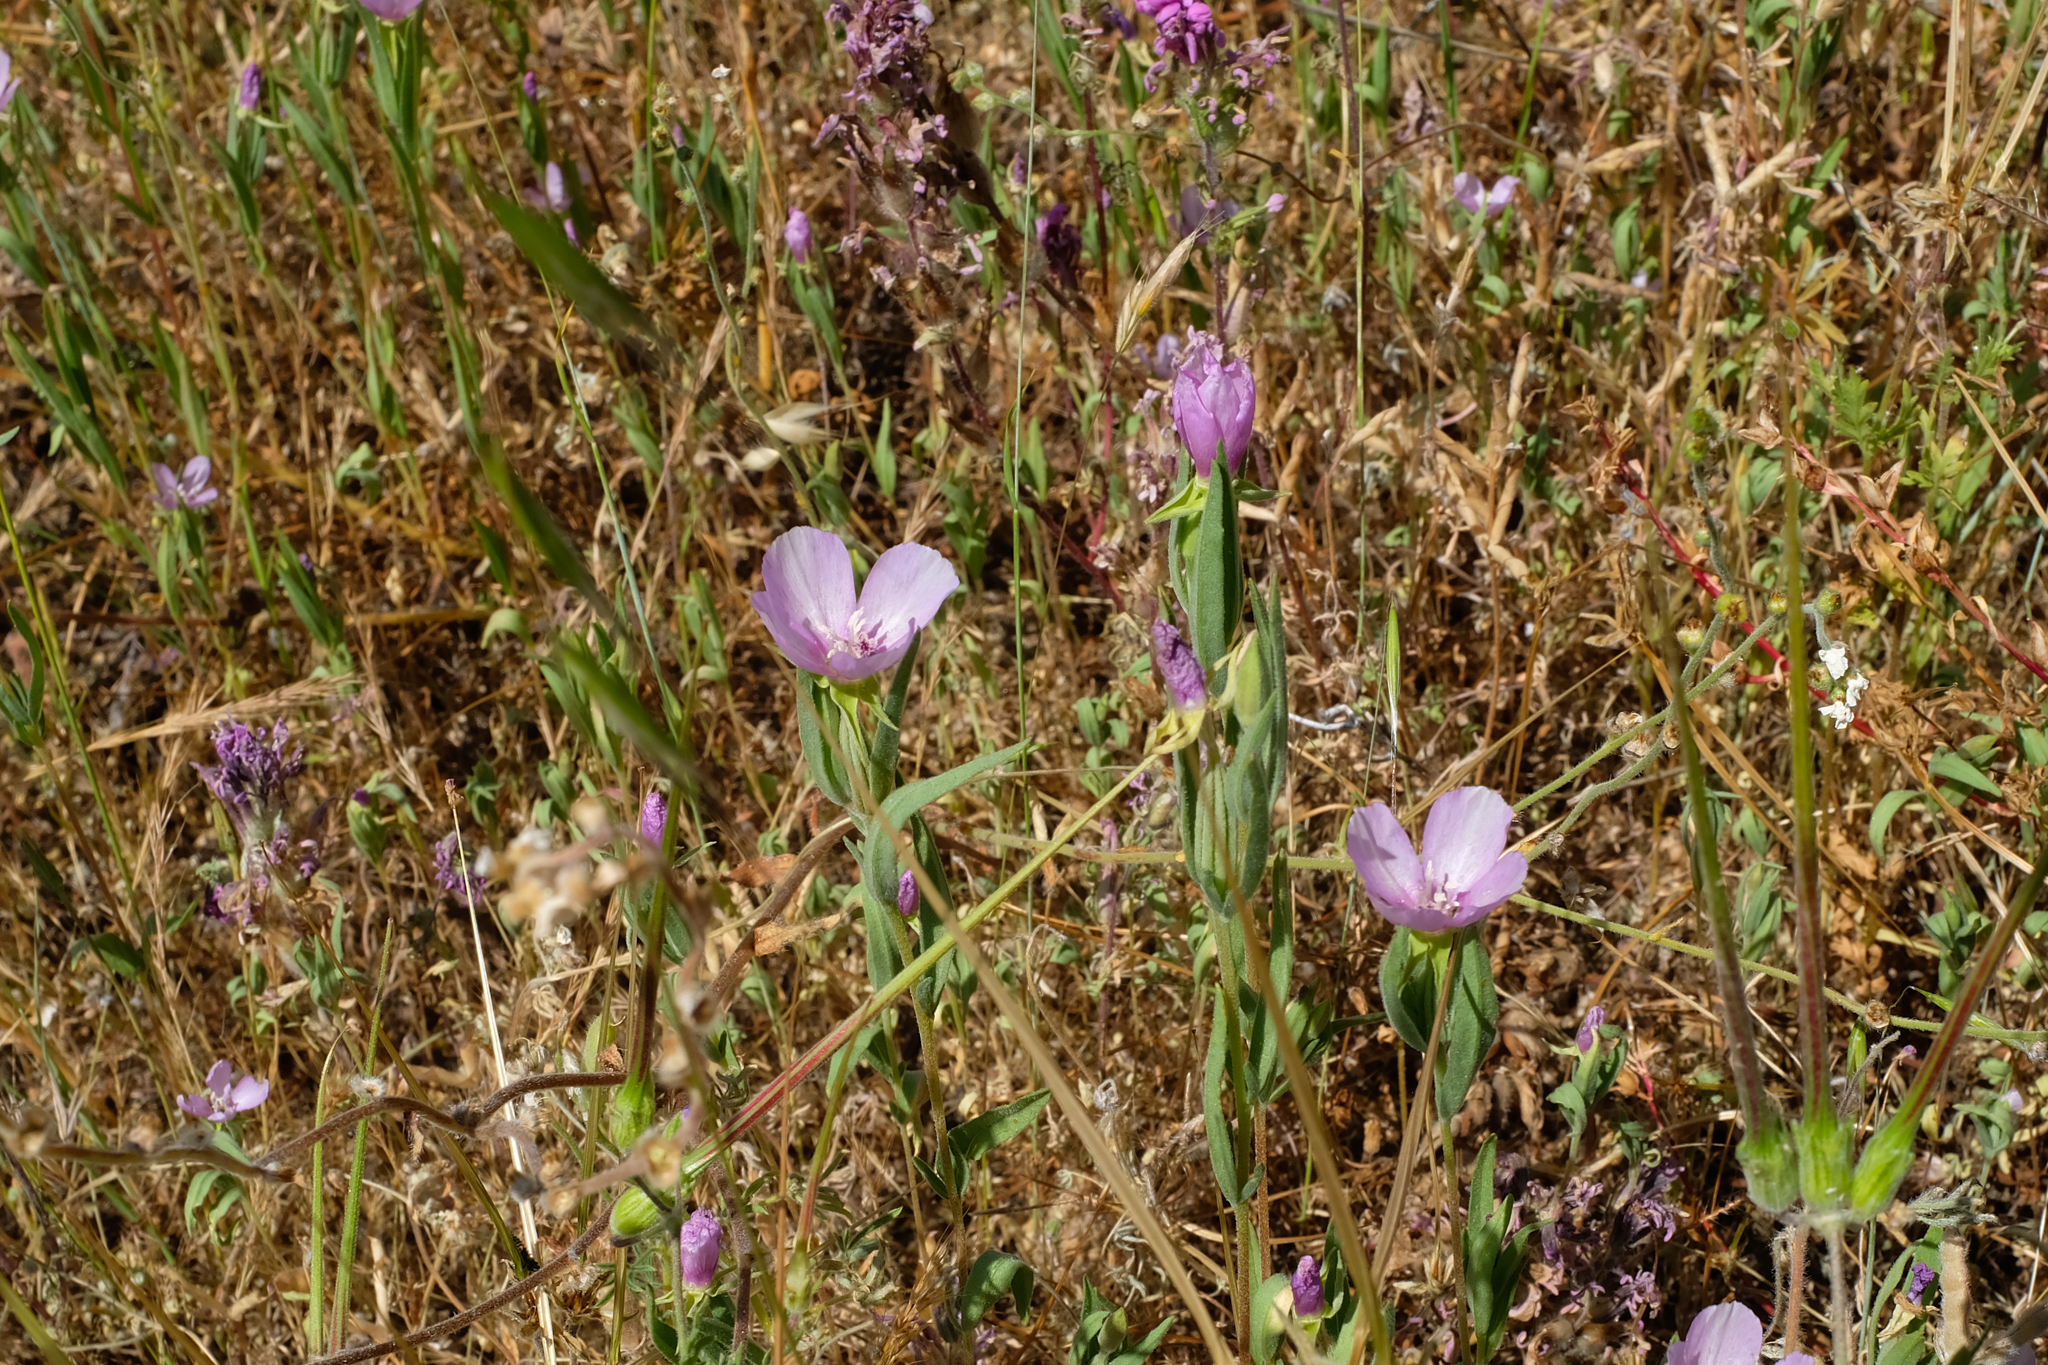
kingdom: Plantae
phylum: Tracheophyta
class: Magnoliopsida
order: Myrtales
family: Onagraceae
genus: Clarkia
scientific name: Clarkia purpurea
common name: Purple clarkia
